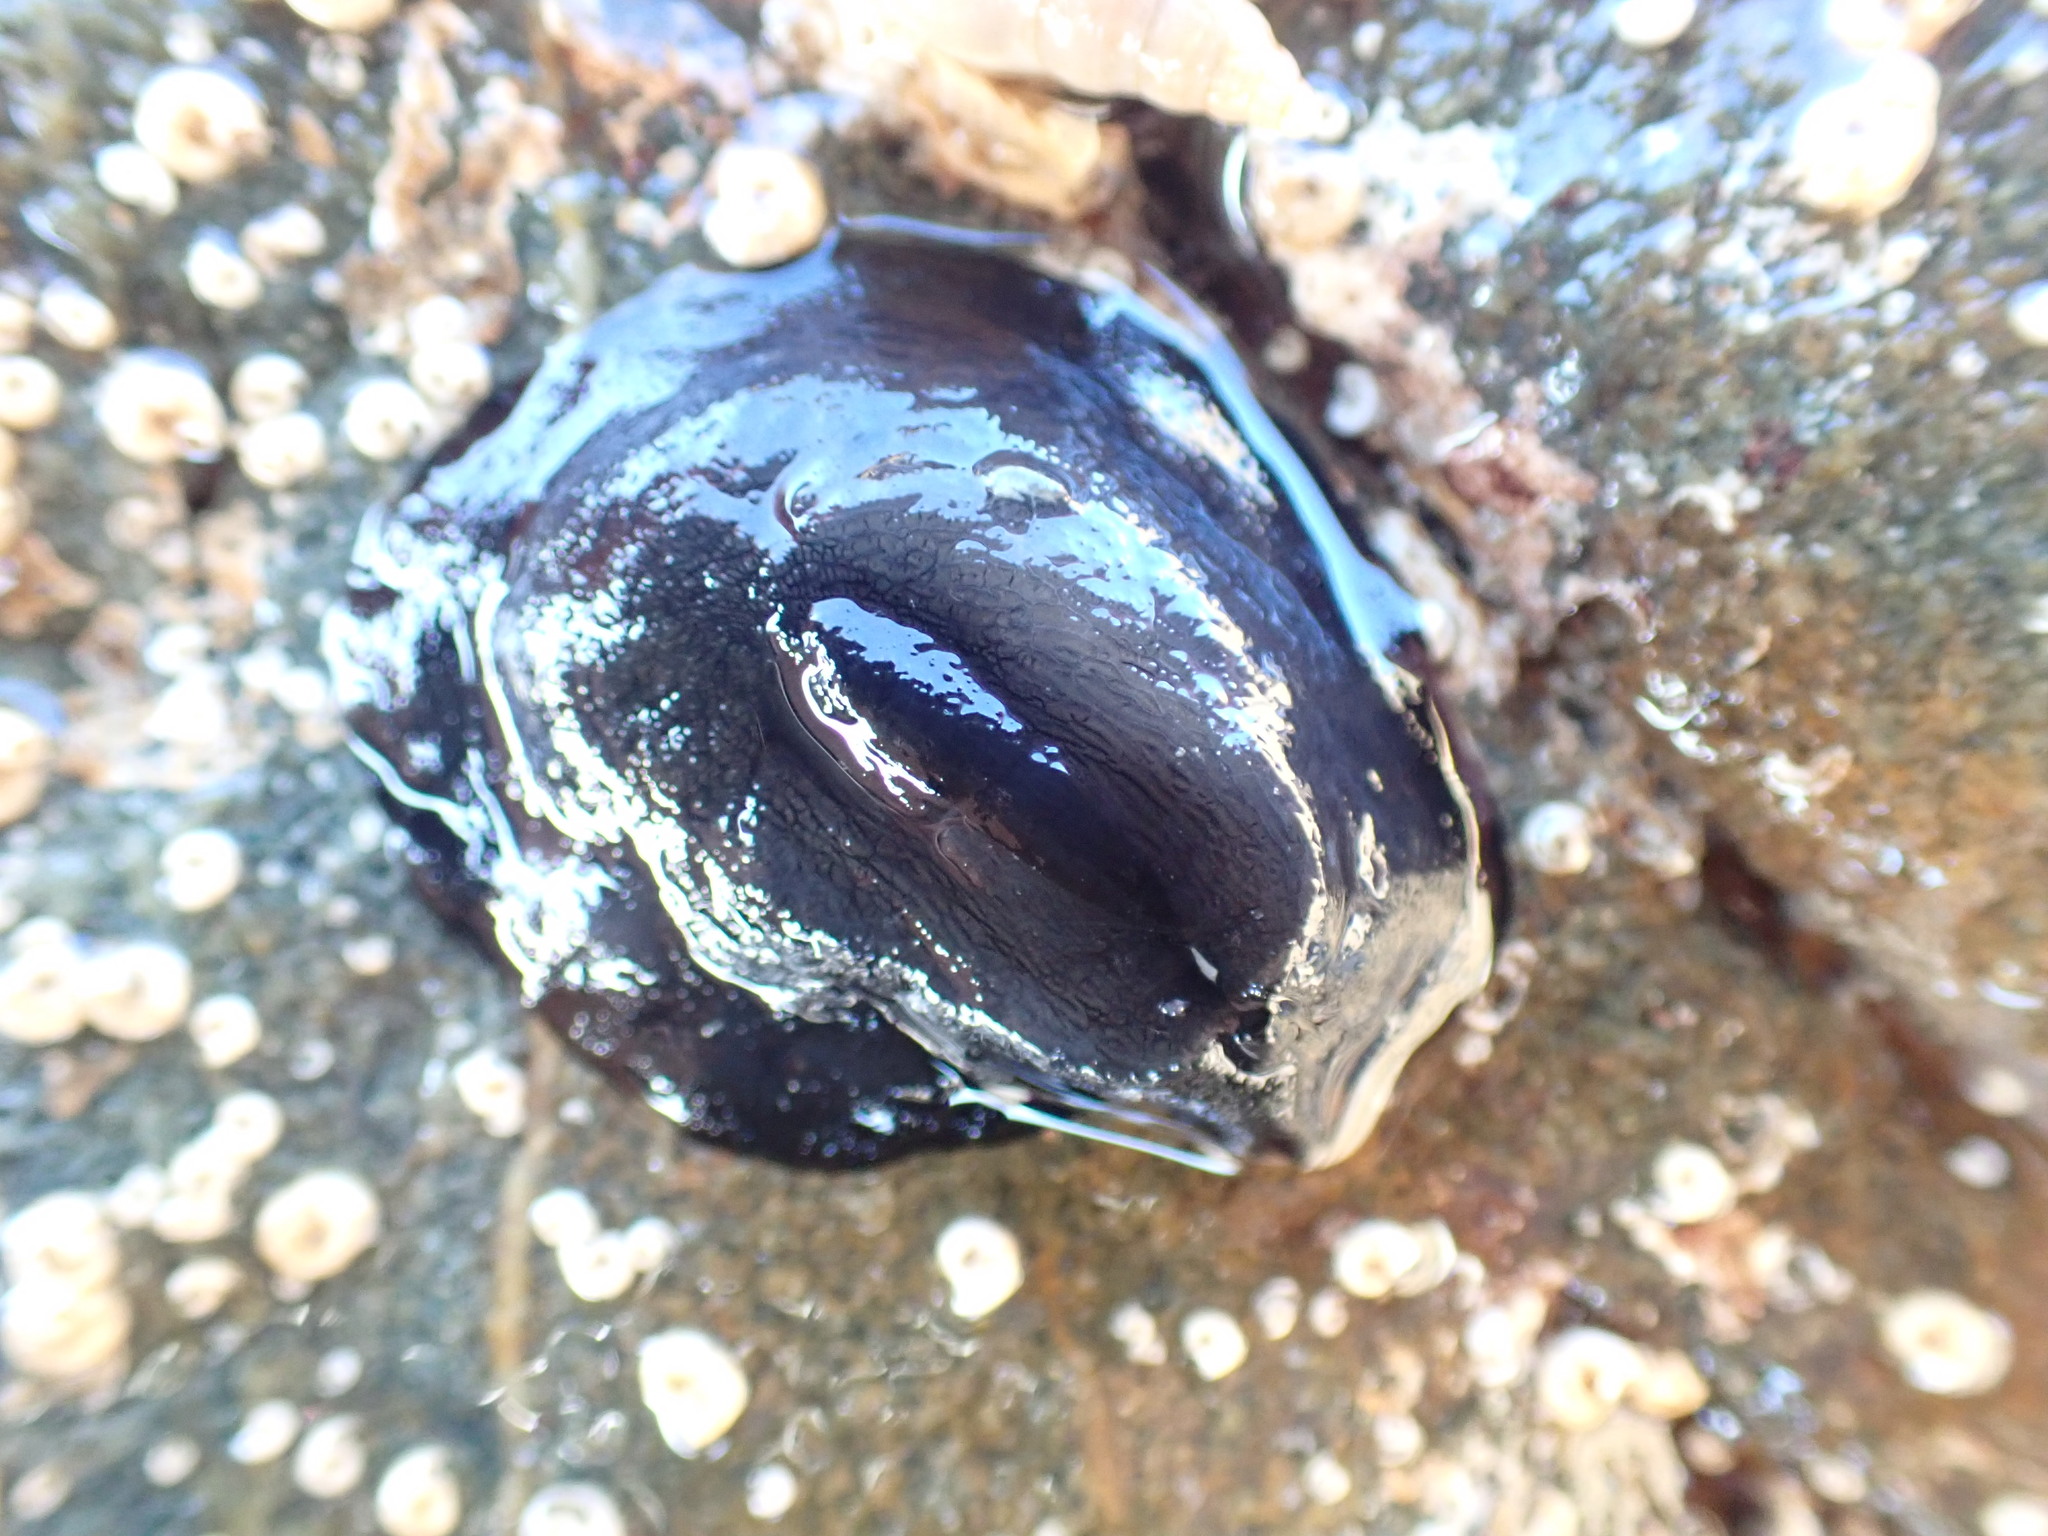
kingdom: Animalia
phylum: Mollusca
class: Gastropoda
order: Lepetellida
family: Fissurellidae
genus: Scutus
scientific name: Scutus breviculus
